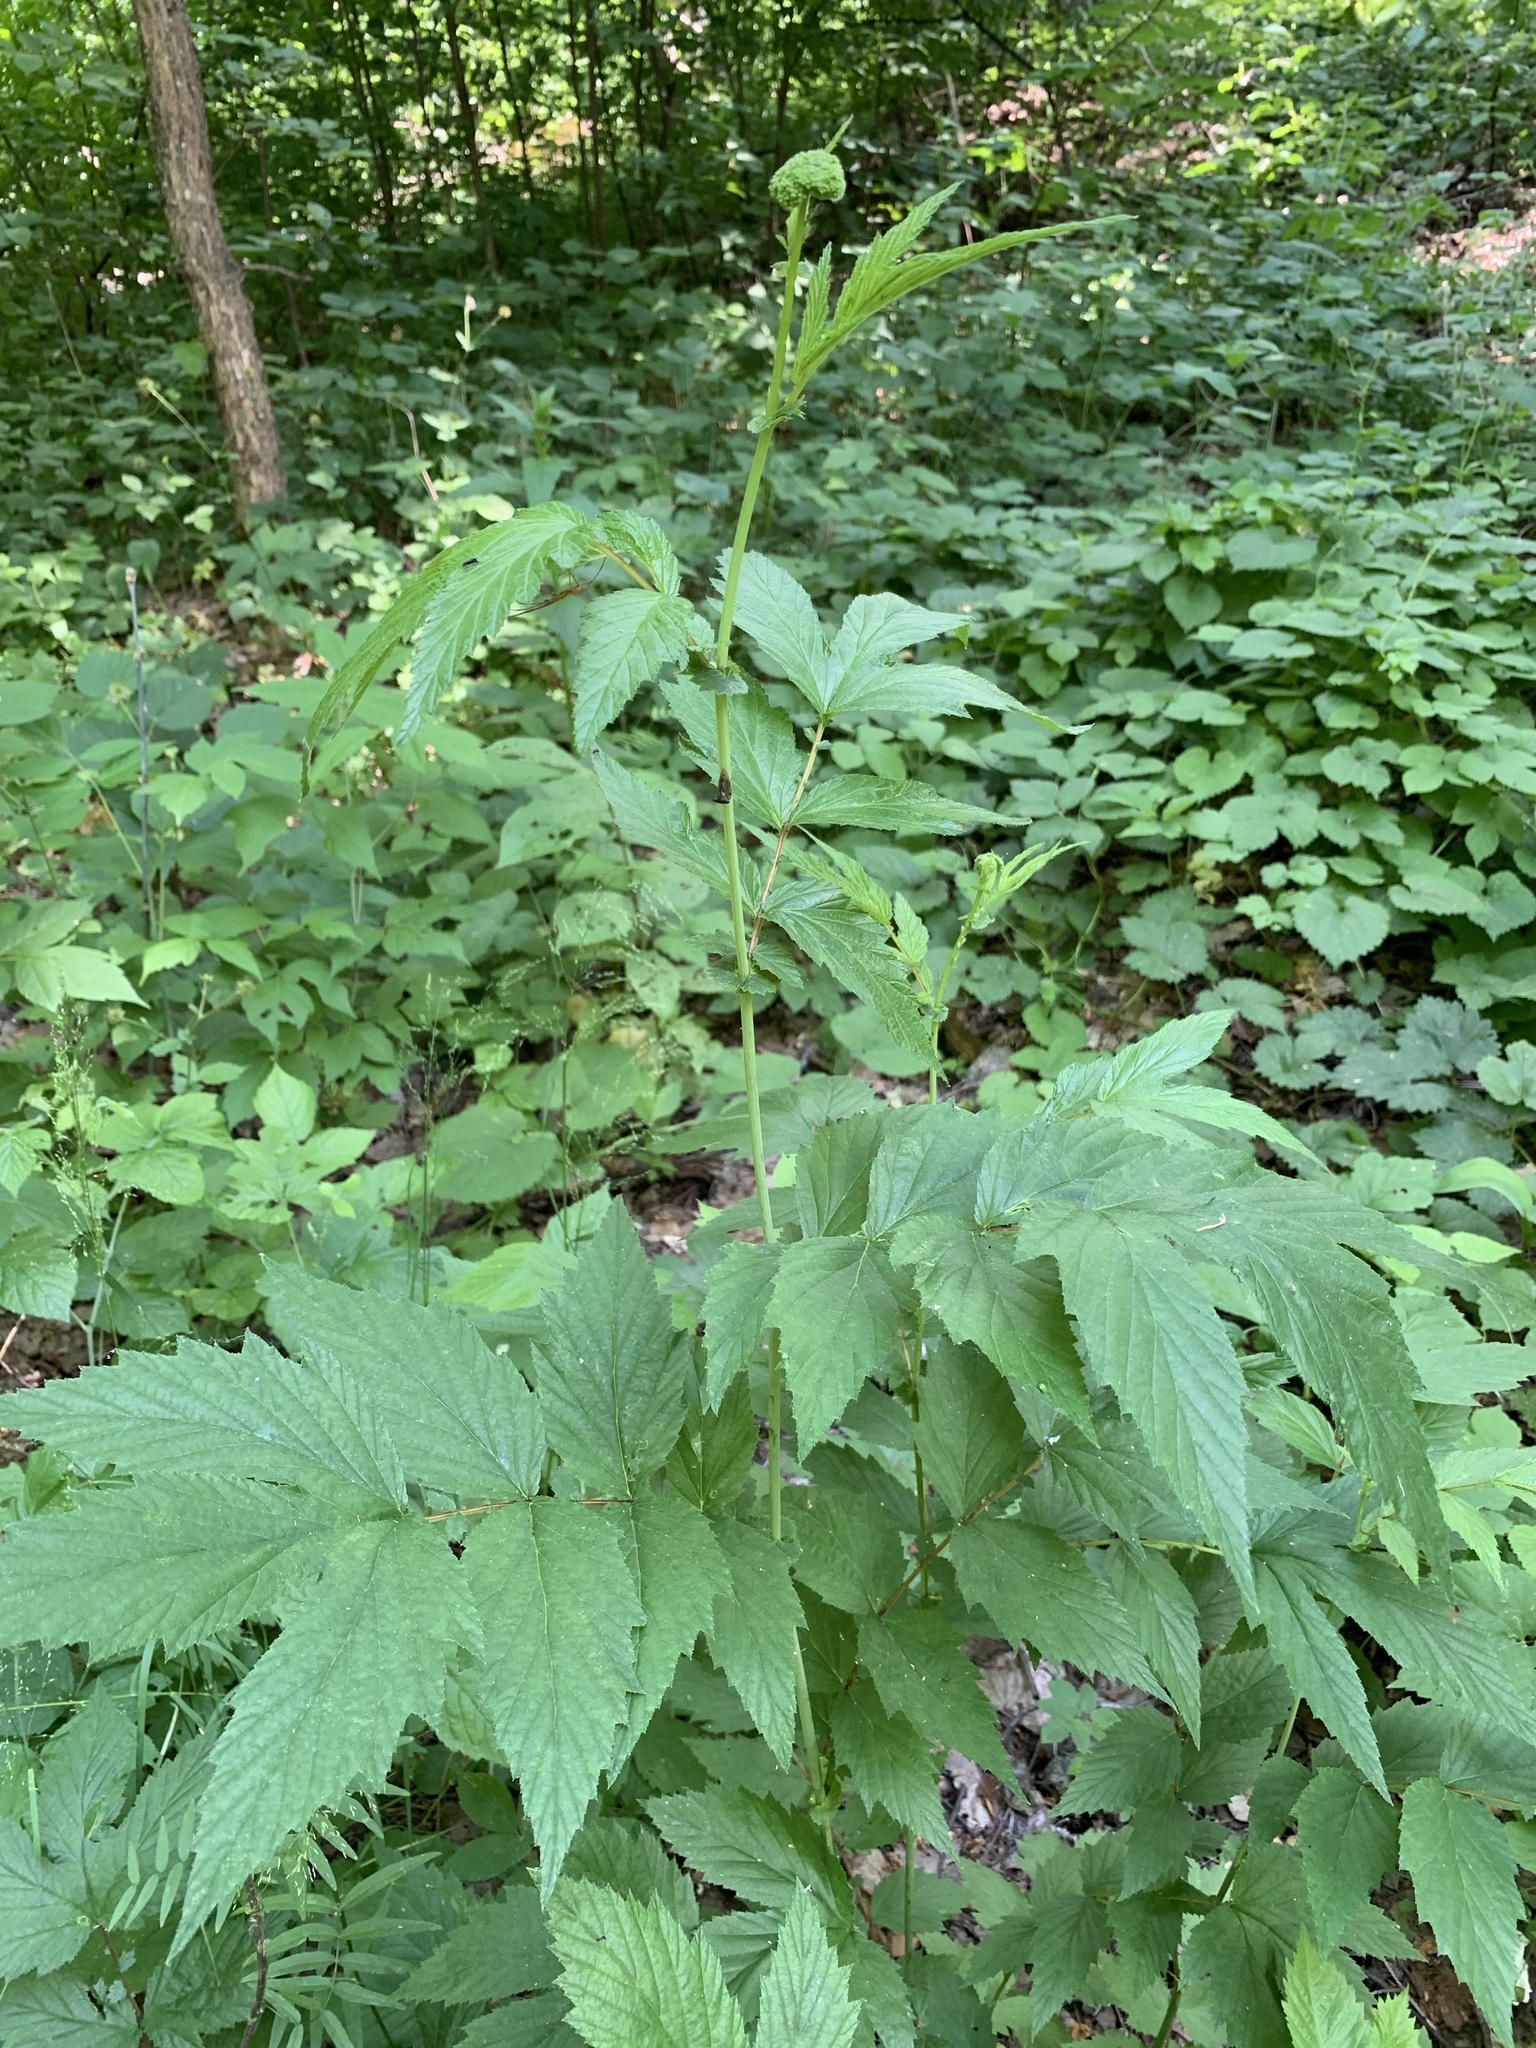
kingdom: Plantae
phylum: Tracheophyta
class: Magnoliopsida
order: Rosales
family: Rosaceae
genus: Filipendula
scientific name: Filipendula ulmaria
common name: Meadowsweet
